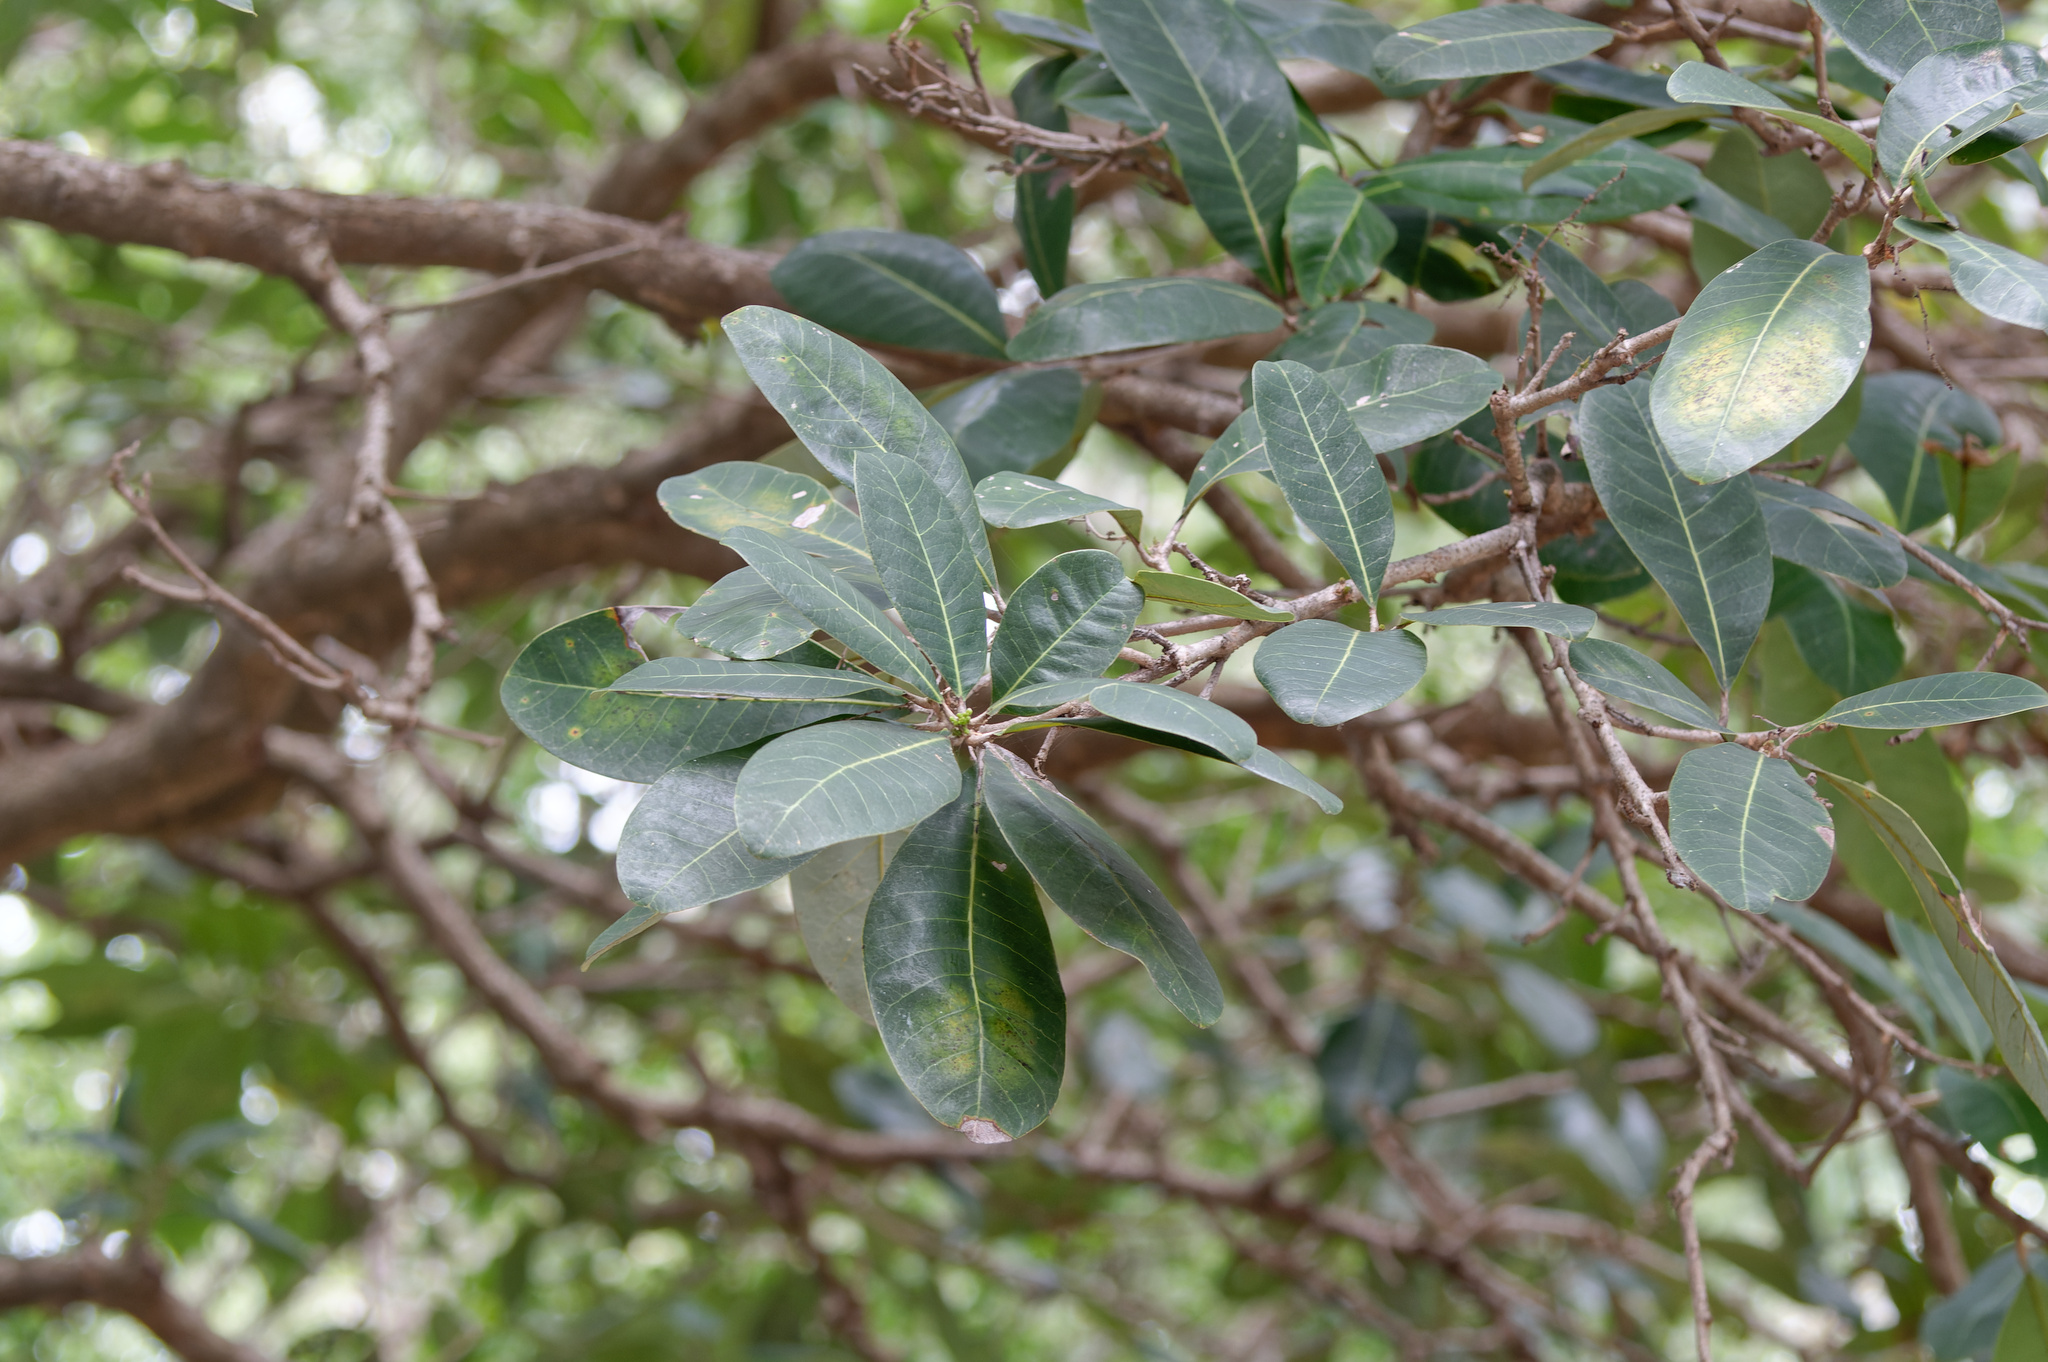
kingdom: Plantae
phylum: Tracheophyta
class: Magnoliopsida
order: Sapindales
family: Anacardiaceae
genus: Semecarpus
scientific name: Semecarpus australiensis
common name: Cedar-plum
